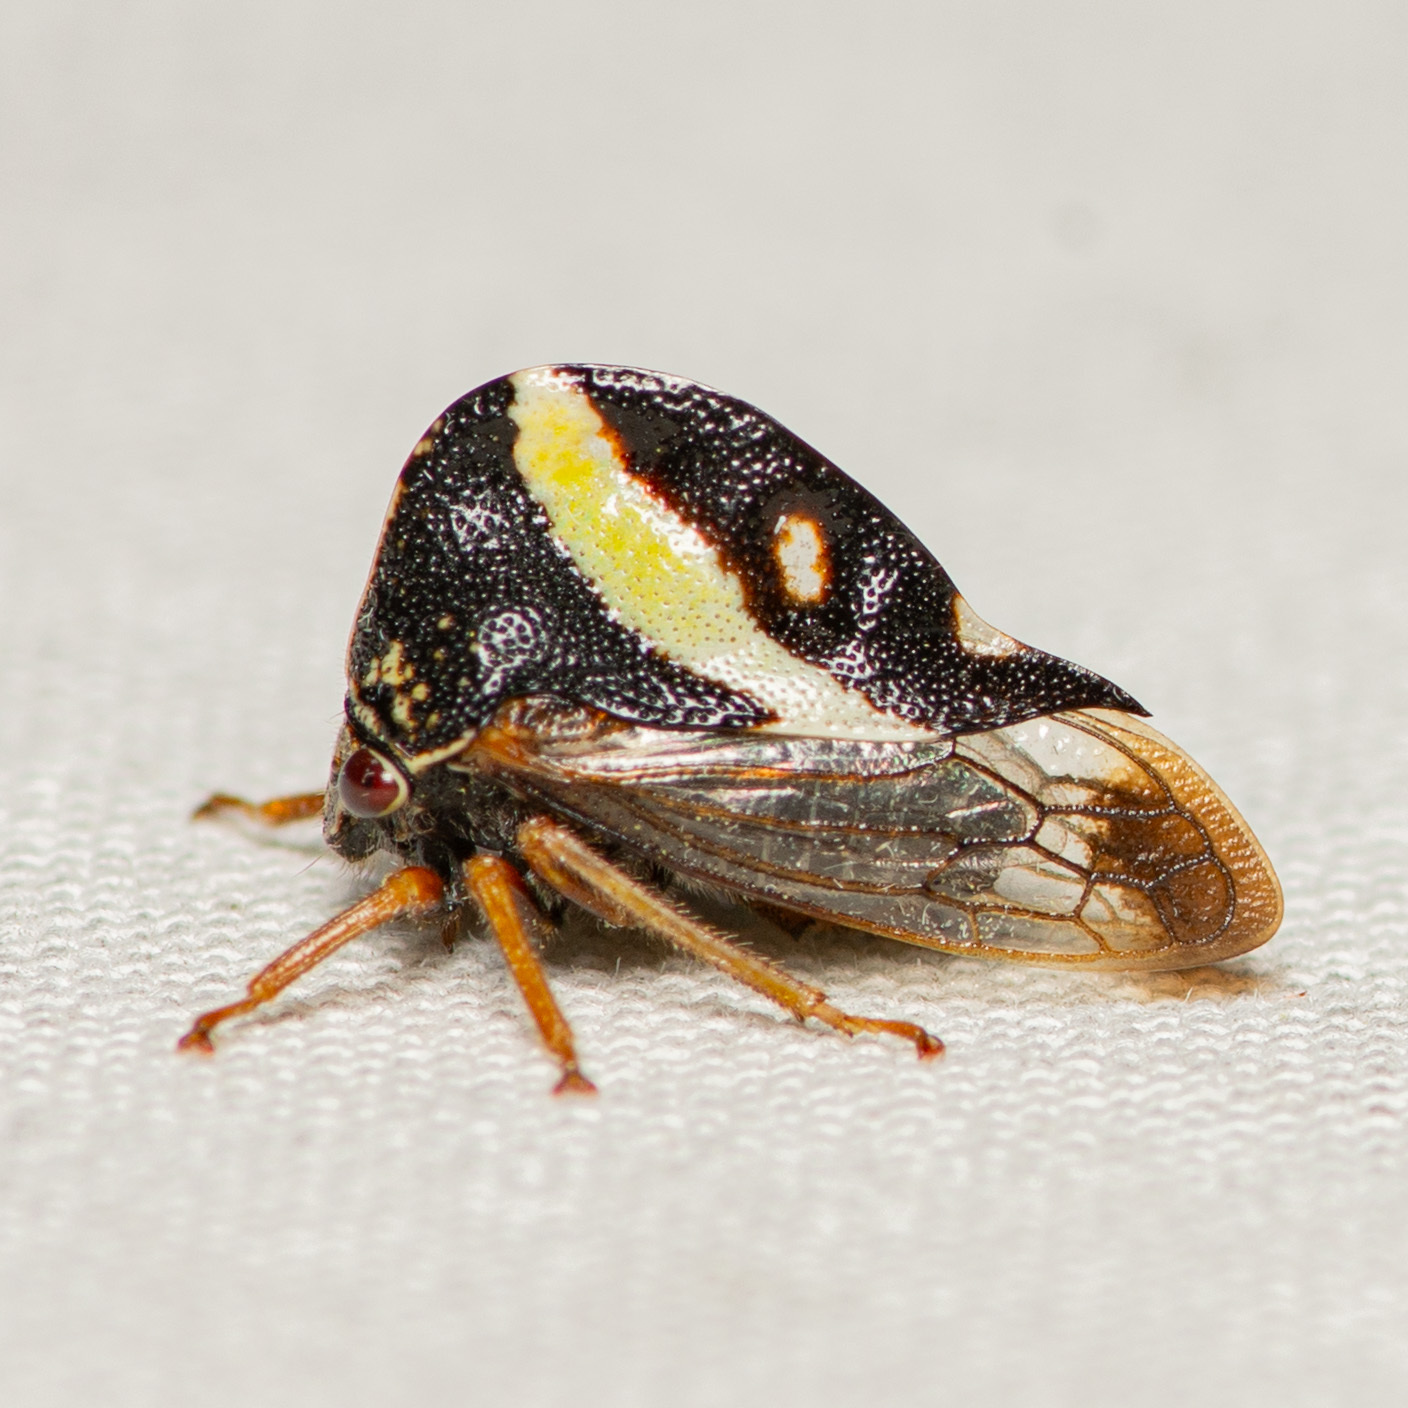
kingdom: Animalia
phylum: Arthropoda
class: Insecta
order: Hemiptera
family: Membracidae
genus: Smilia
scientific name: Smilia camelus
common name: Camel treehopper
